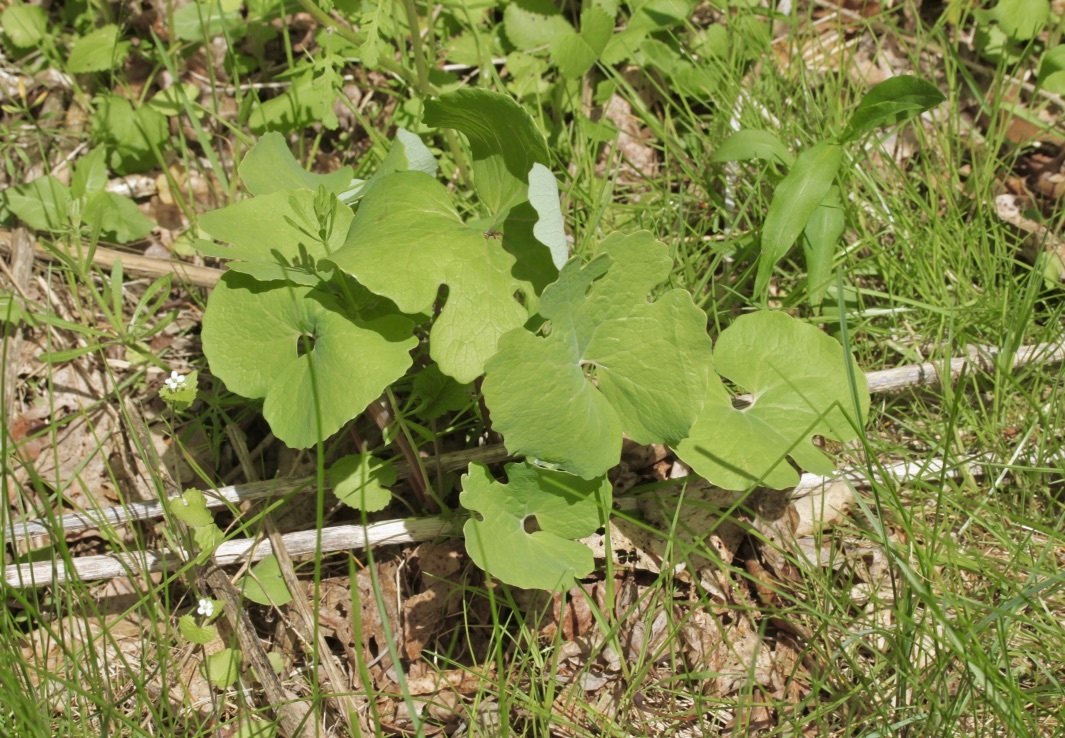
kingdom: Plantae
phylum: Tracheophyta
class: Magnoliopsida
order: Ranunculales
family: Papaveraceae
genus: Sanguinaria
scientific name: Sanguinaria canadensis
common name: Bloodroot
